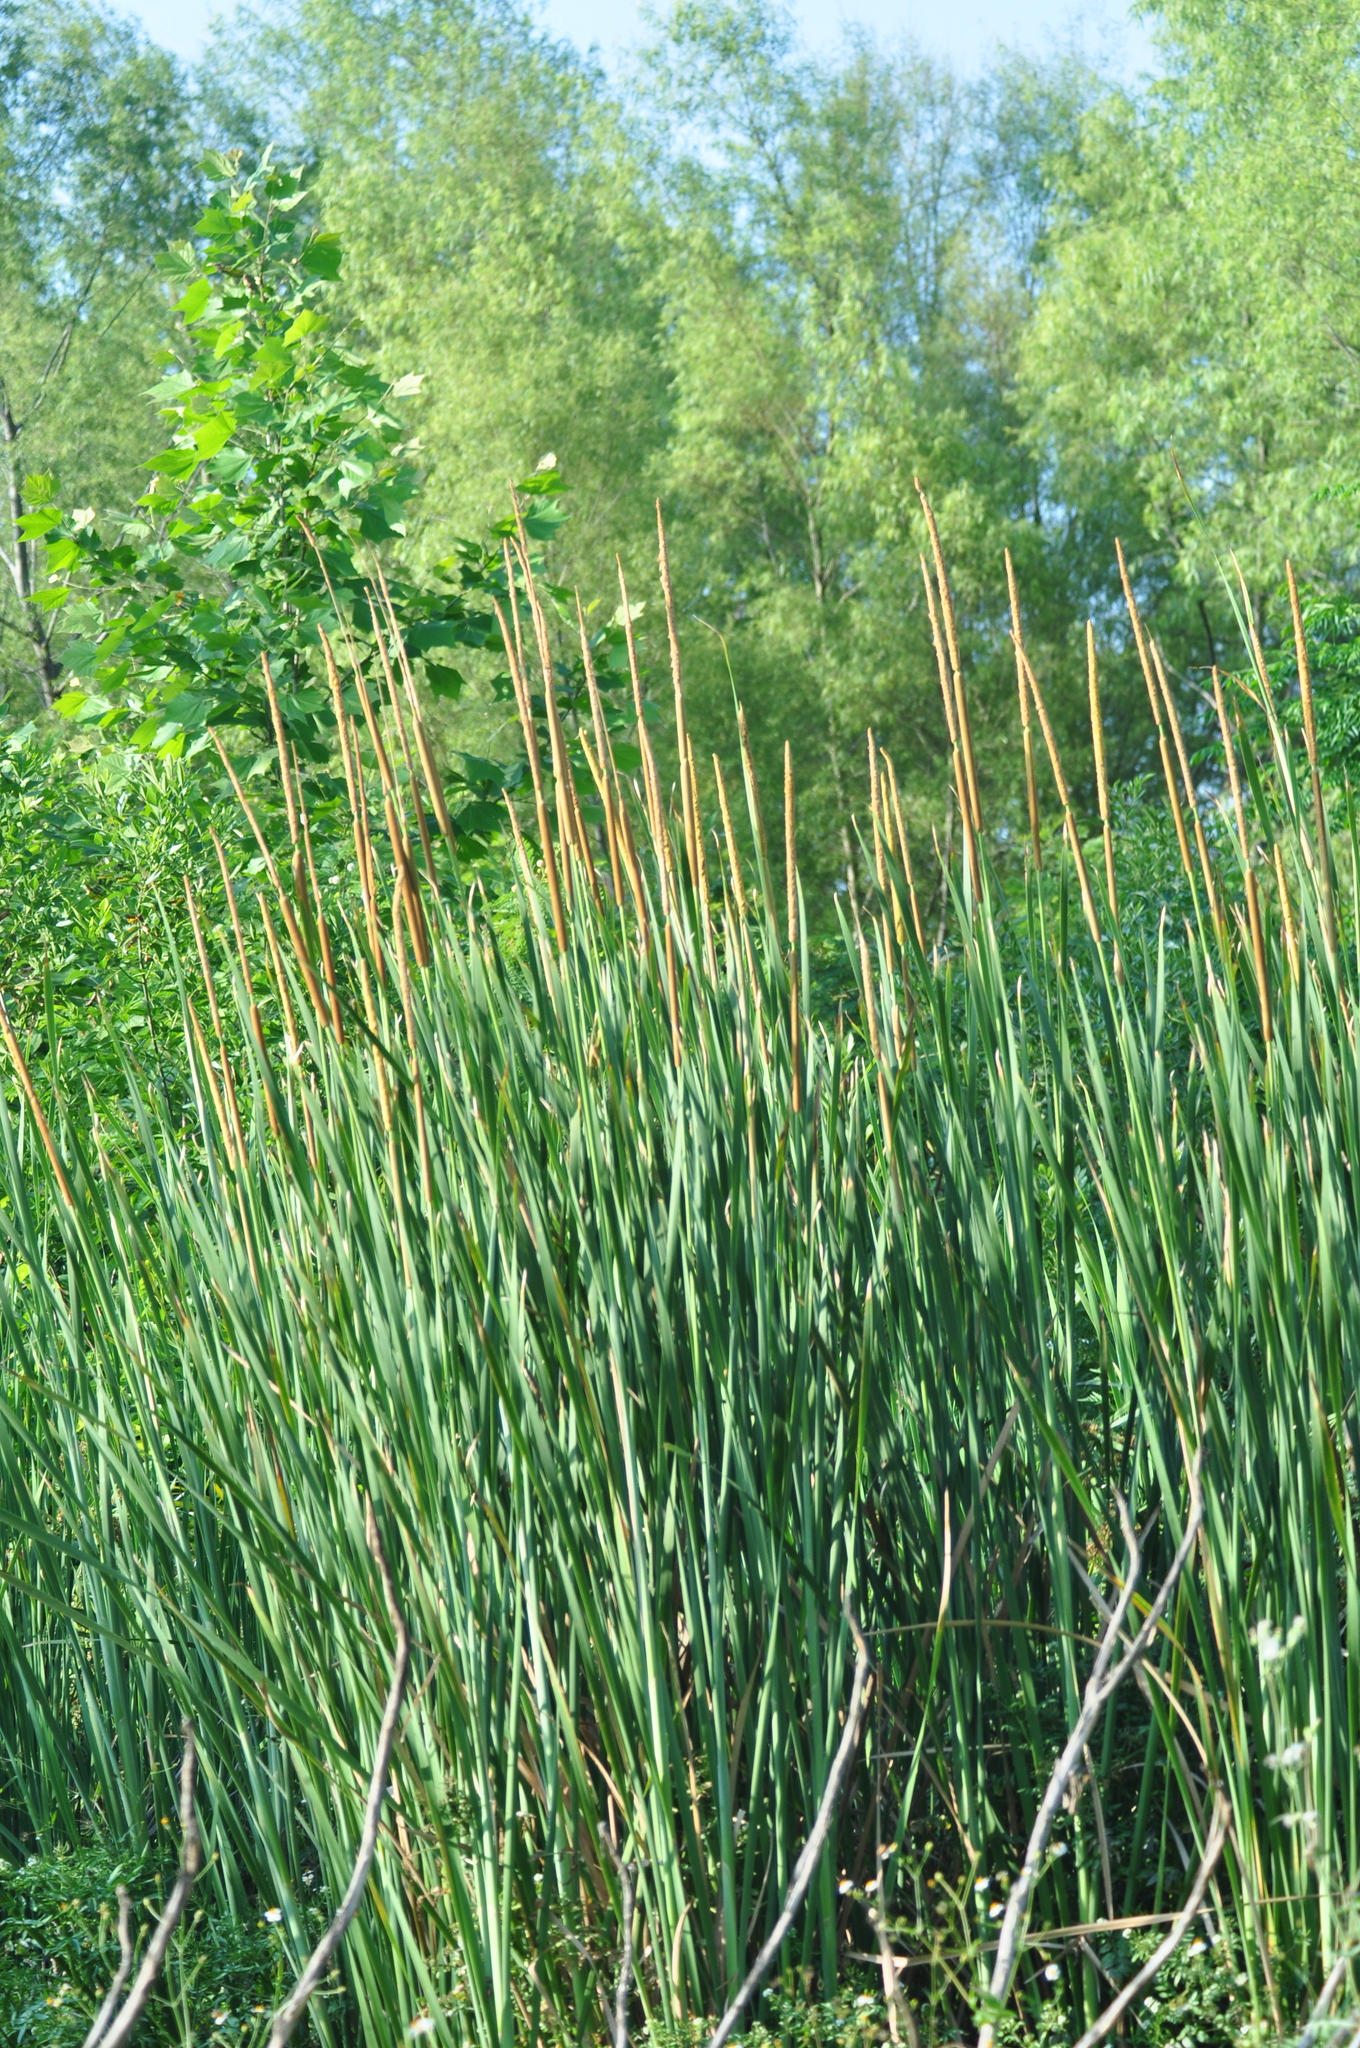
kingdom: Plantae
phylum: Tracheophyta
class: Liliopsida
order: Poales
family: Typhaceae
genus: Typha
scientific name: Typha domingensis
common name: Southern cattail
